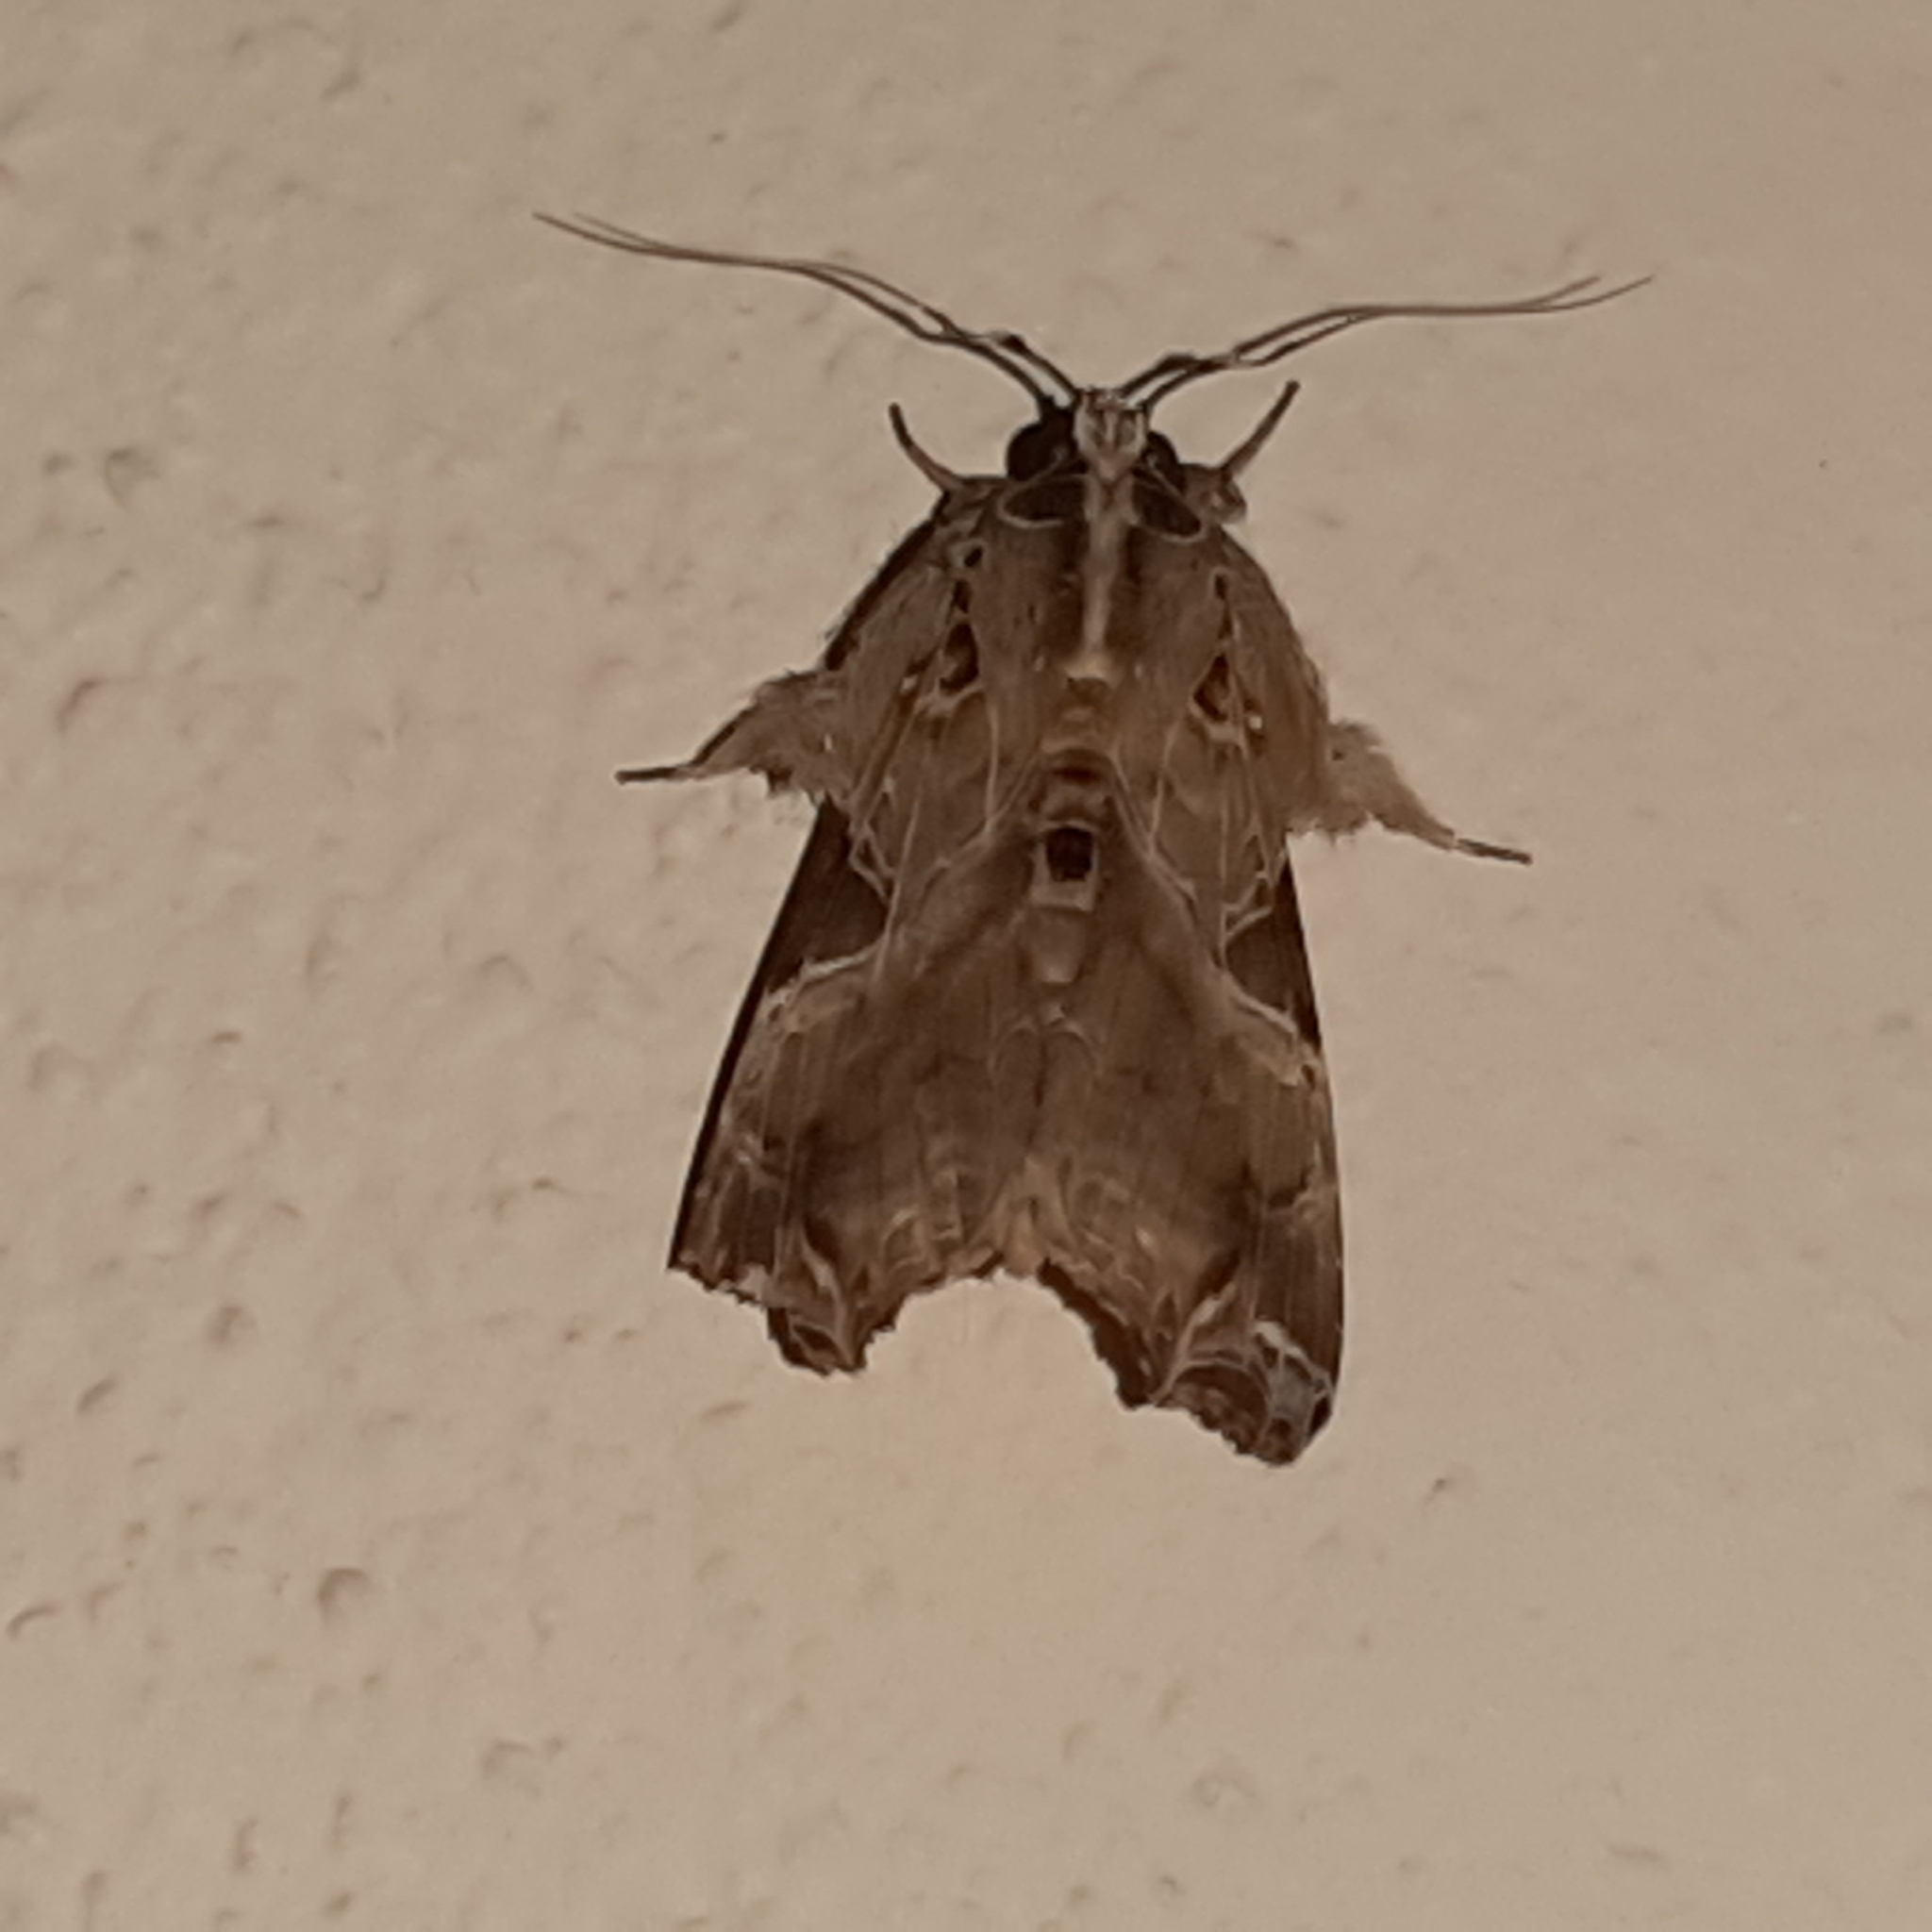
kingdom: Animalia
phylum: Arthropoda
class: Insecta
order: Lepidoptera
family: Noctuidae
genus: Callopistria
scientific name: Callopistria floridensis
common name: Florida fern moth
